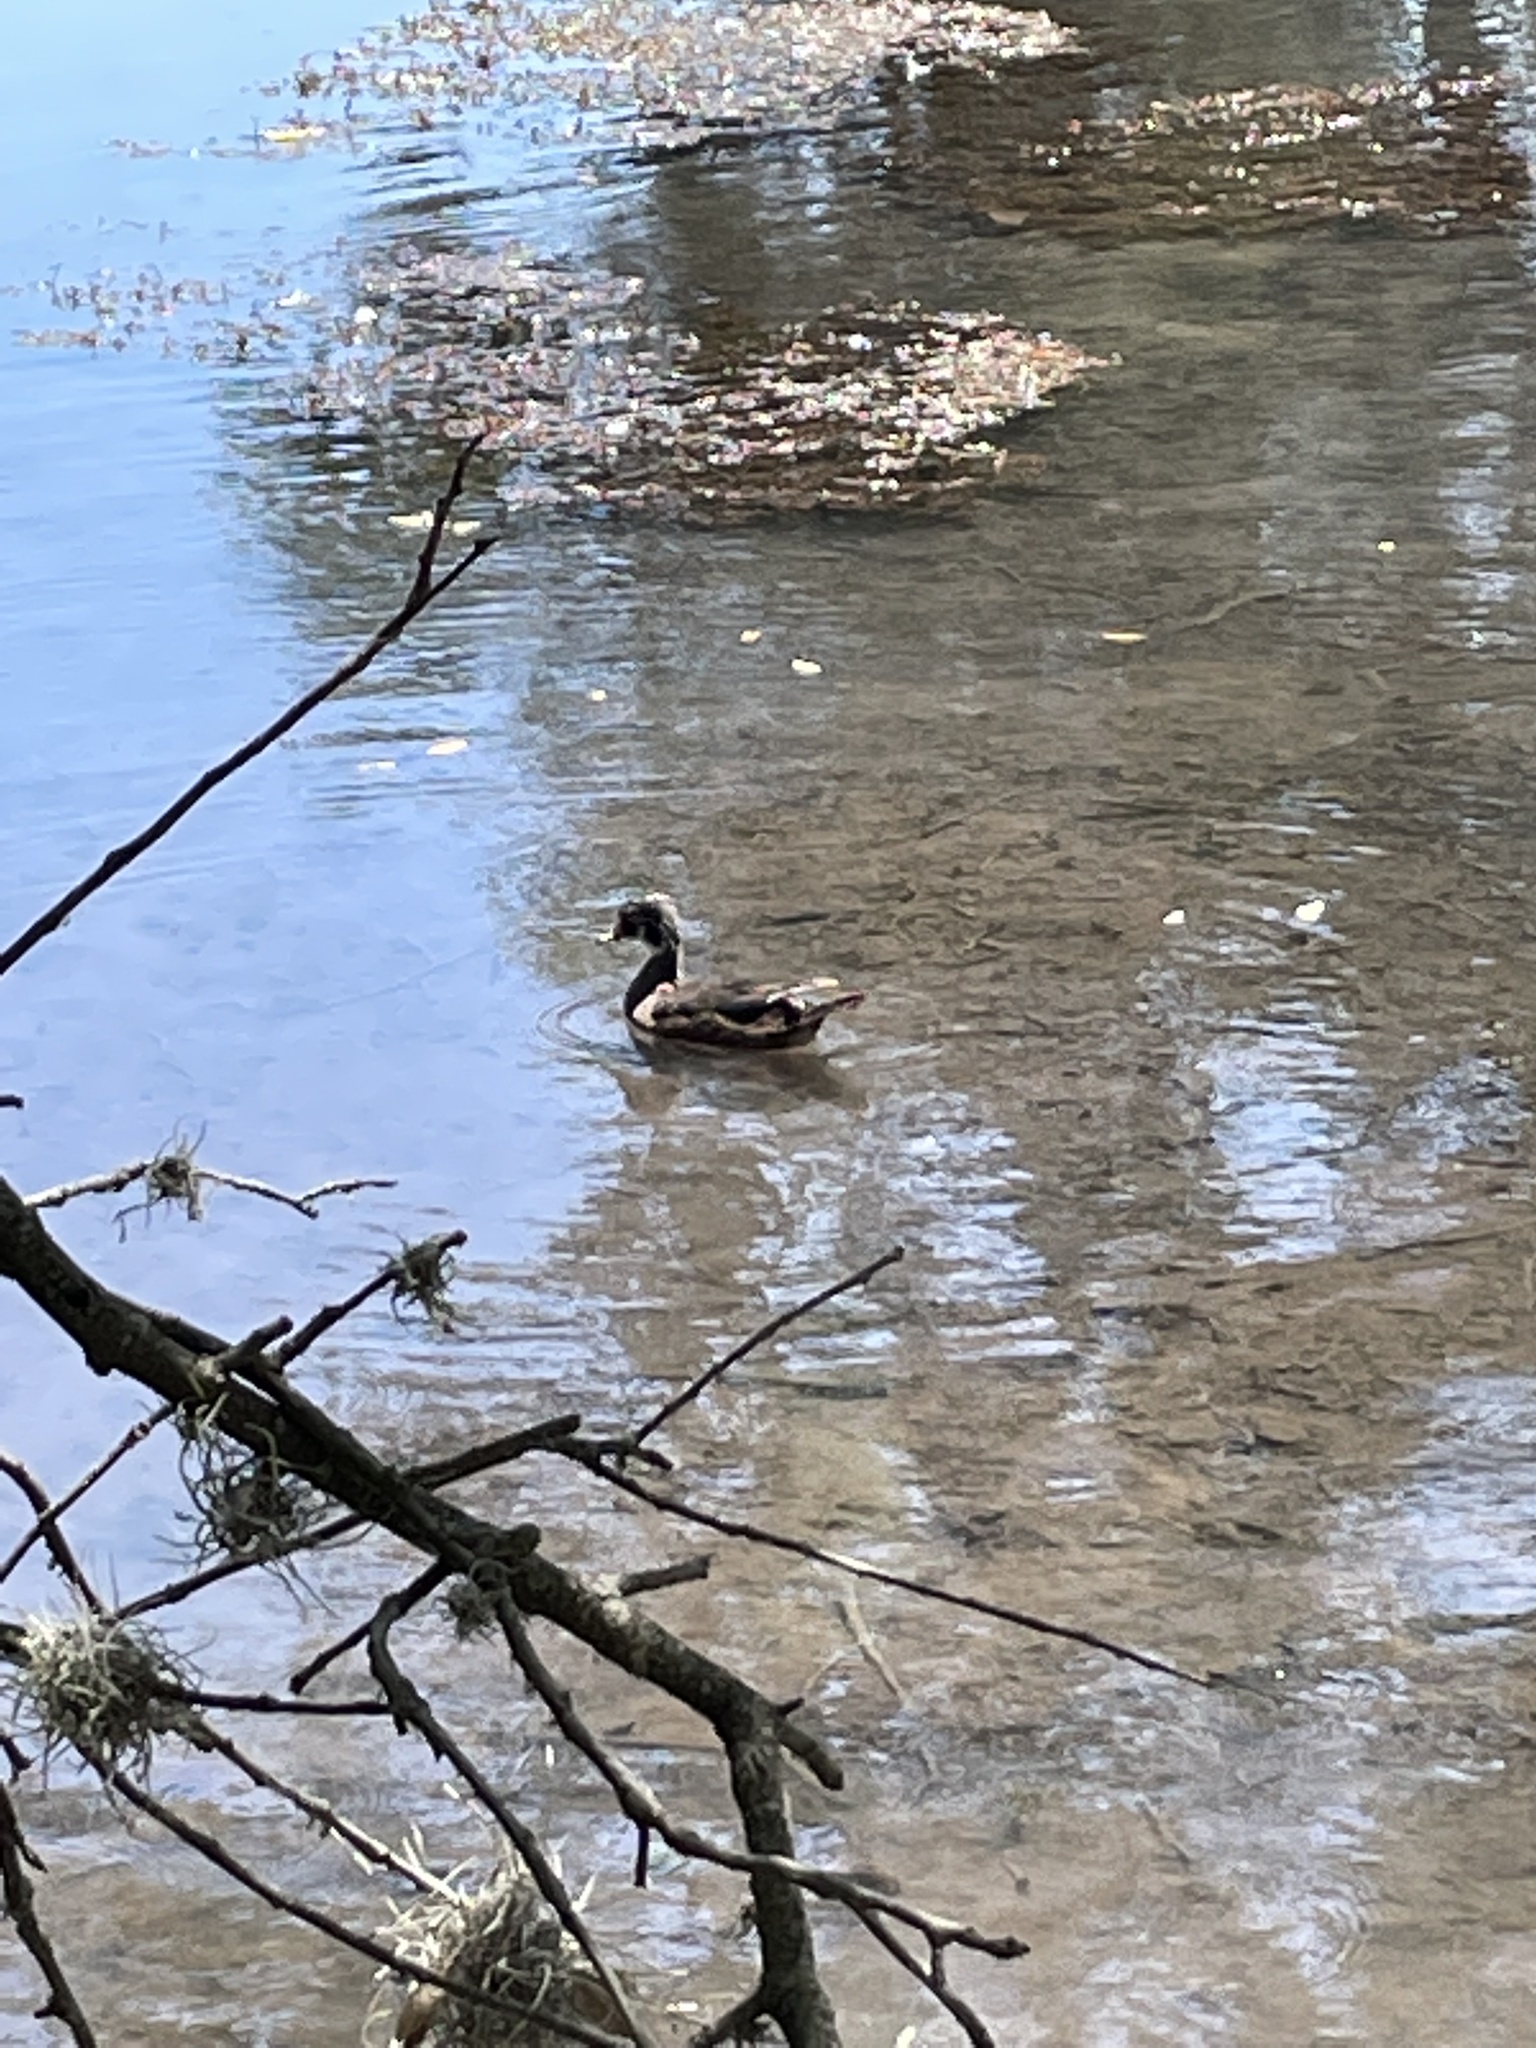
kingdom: Animalia
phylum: Chordata
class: Aves
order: Anseriformes
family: Anatidae
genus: Aix
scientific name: Aix sponsa
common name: Wood duck
